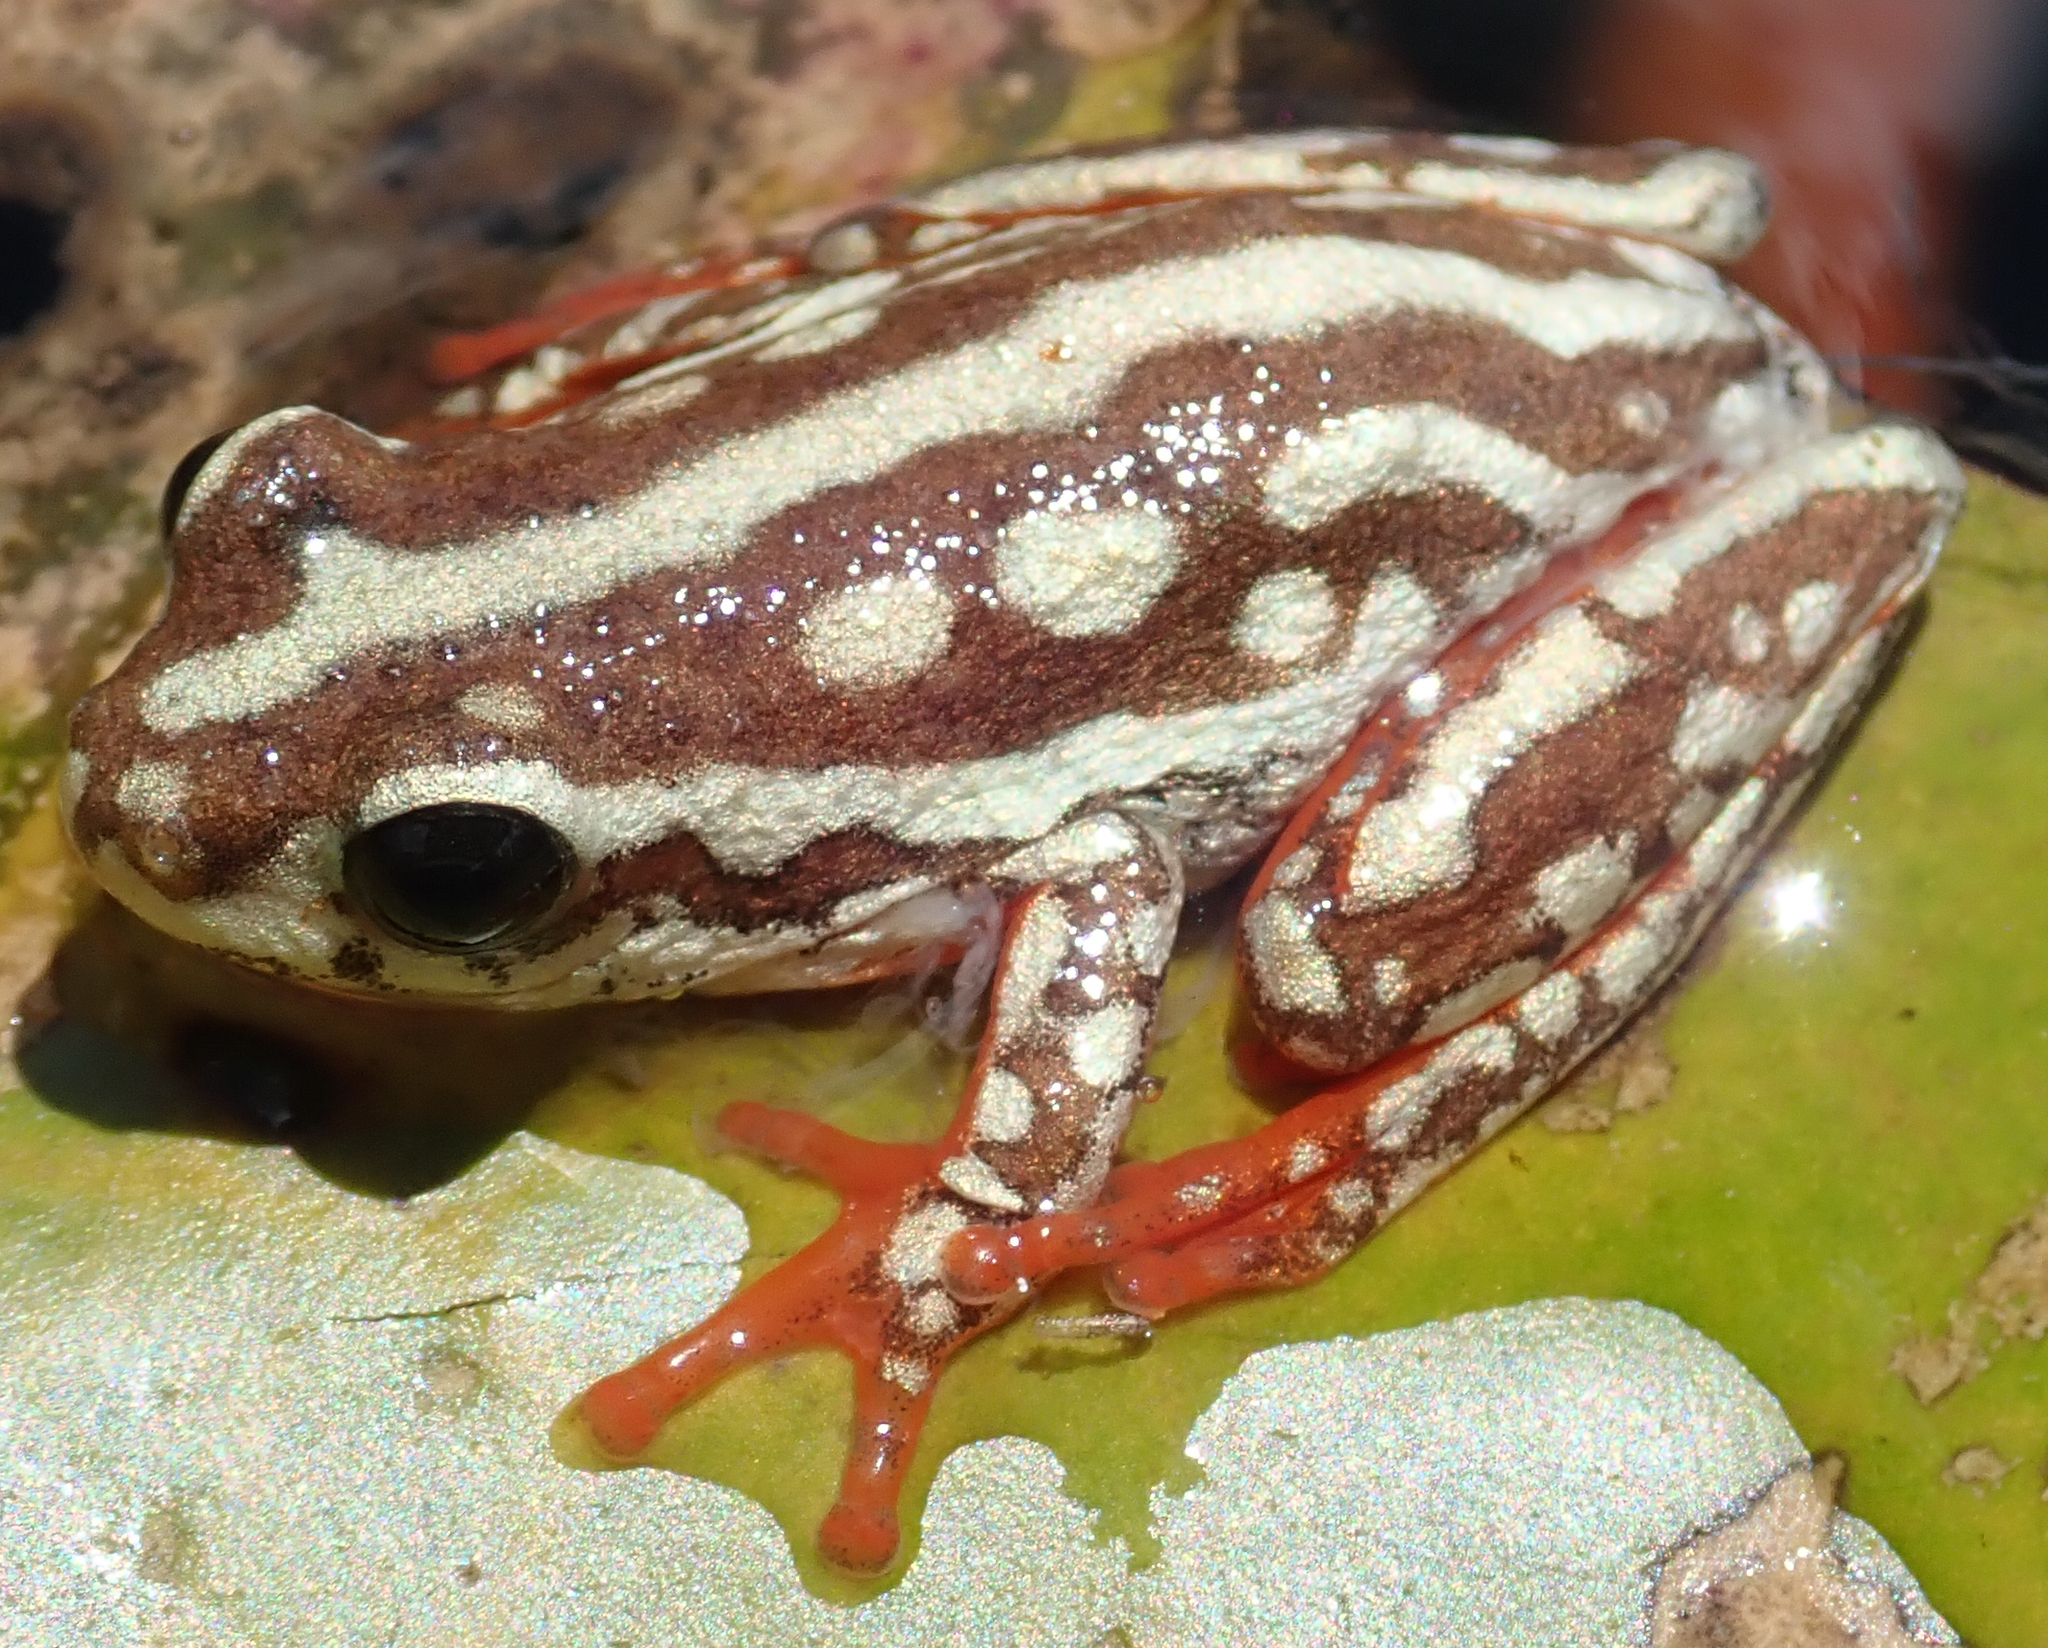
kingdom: Animalia
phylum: Chordata
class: Amphibia
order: Anura
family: Hyperoliidae
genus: Hyperolius
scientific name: Hyperolius parallelus
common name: Angolan reed frog
